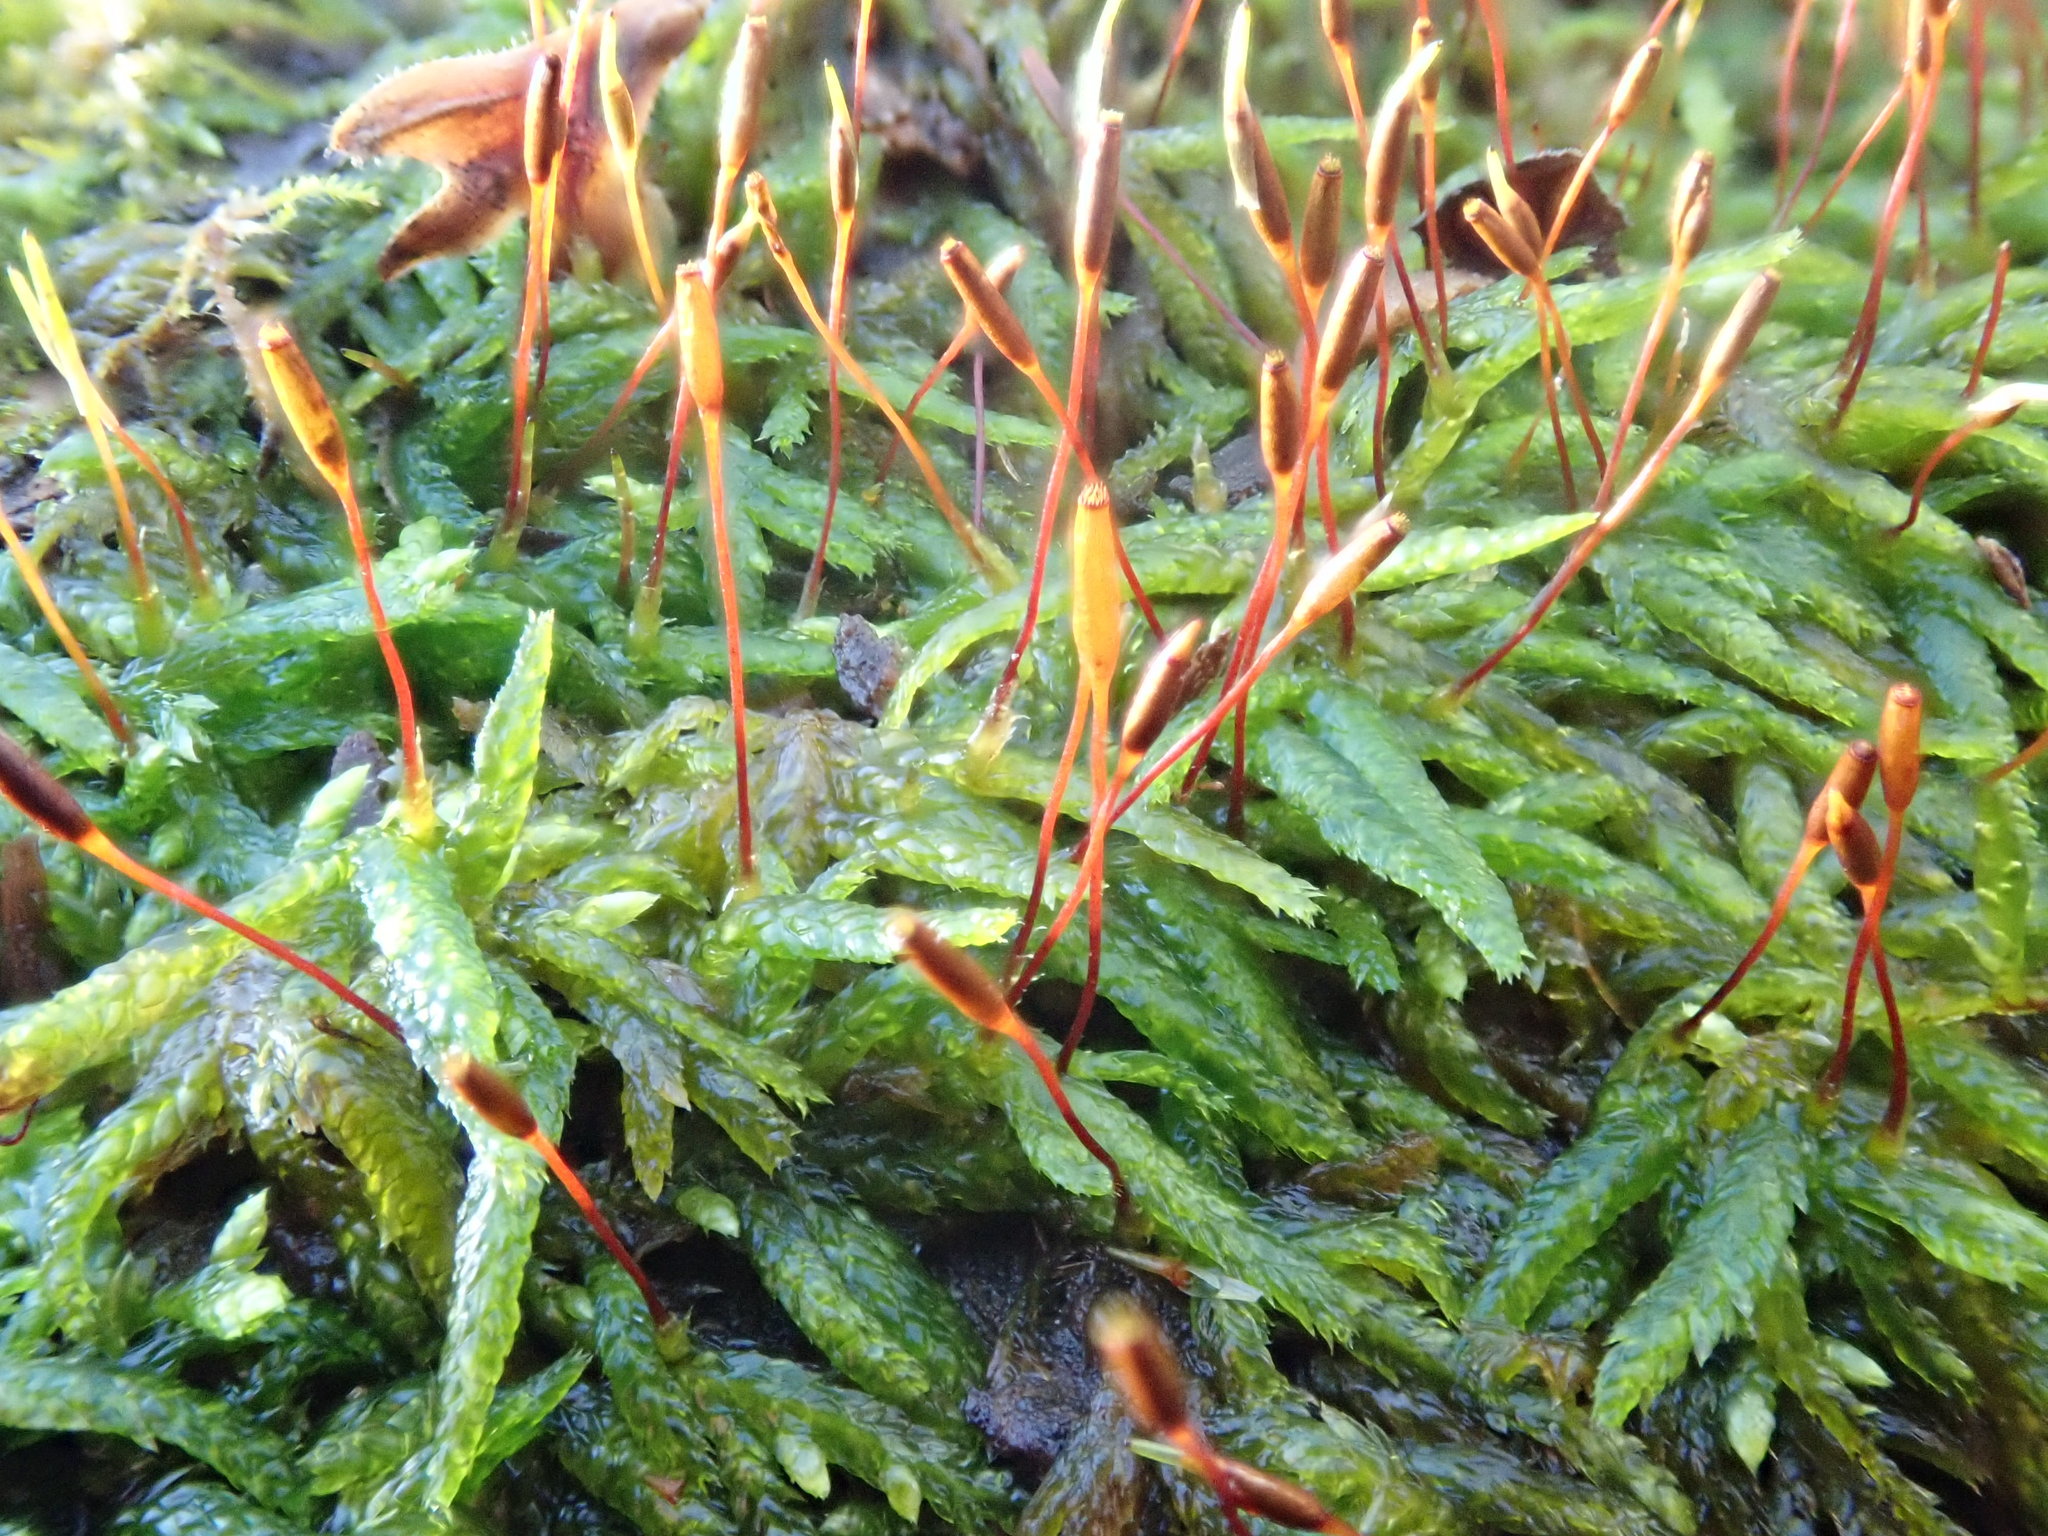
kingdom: Plantae
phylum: Bryophyta
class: Bryopsida
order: Hypnales
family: Entodontaceae
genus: Entodon
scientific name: Entodon seductrix
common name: Round-stemmed entodon moss
